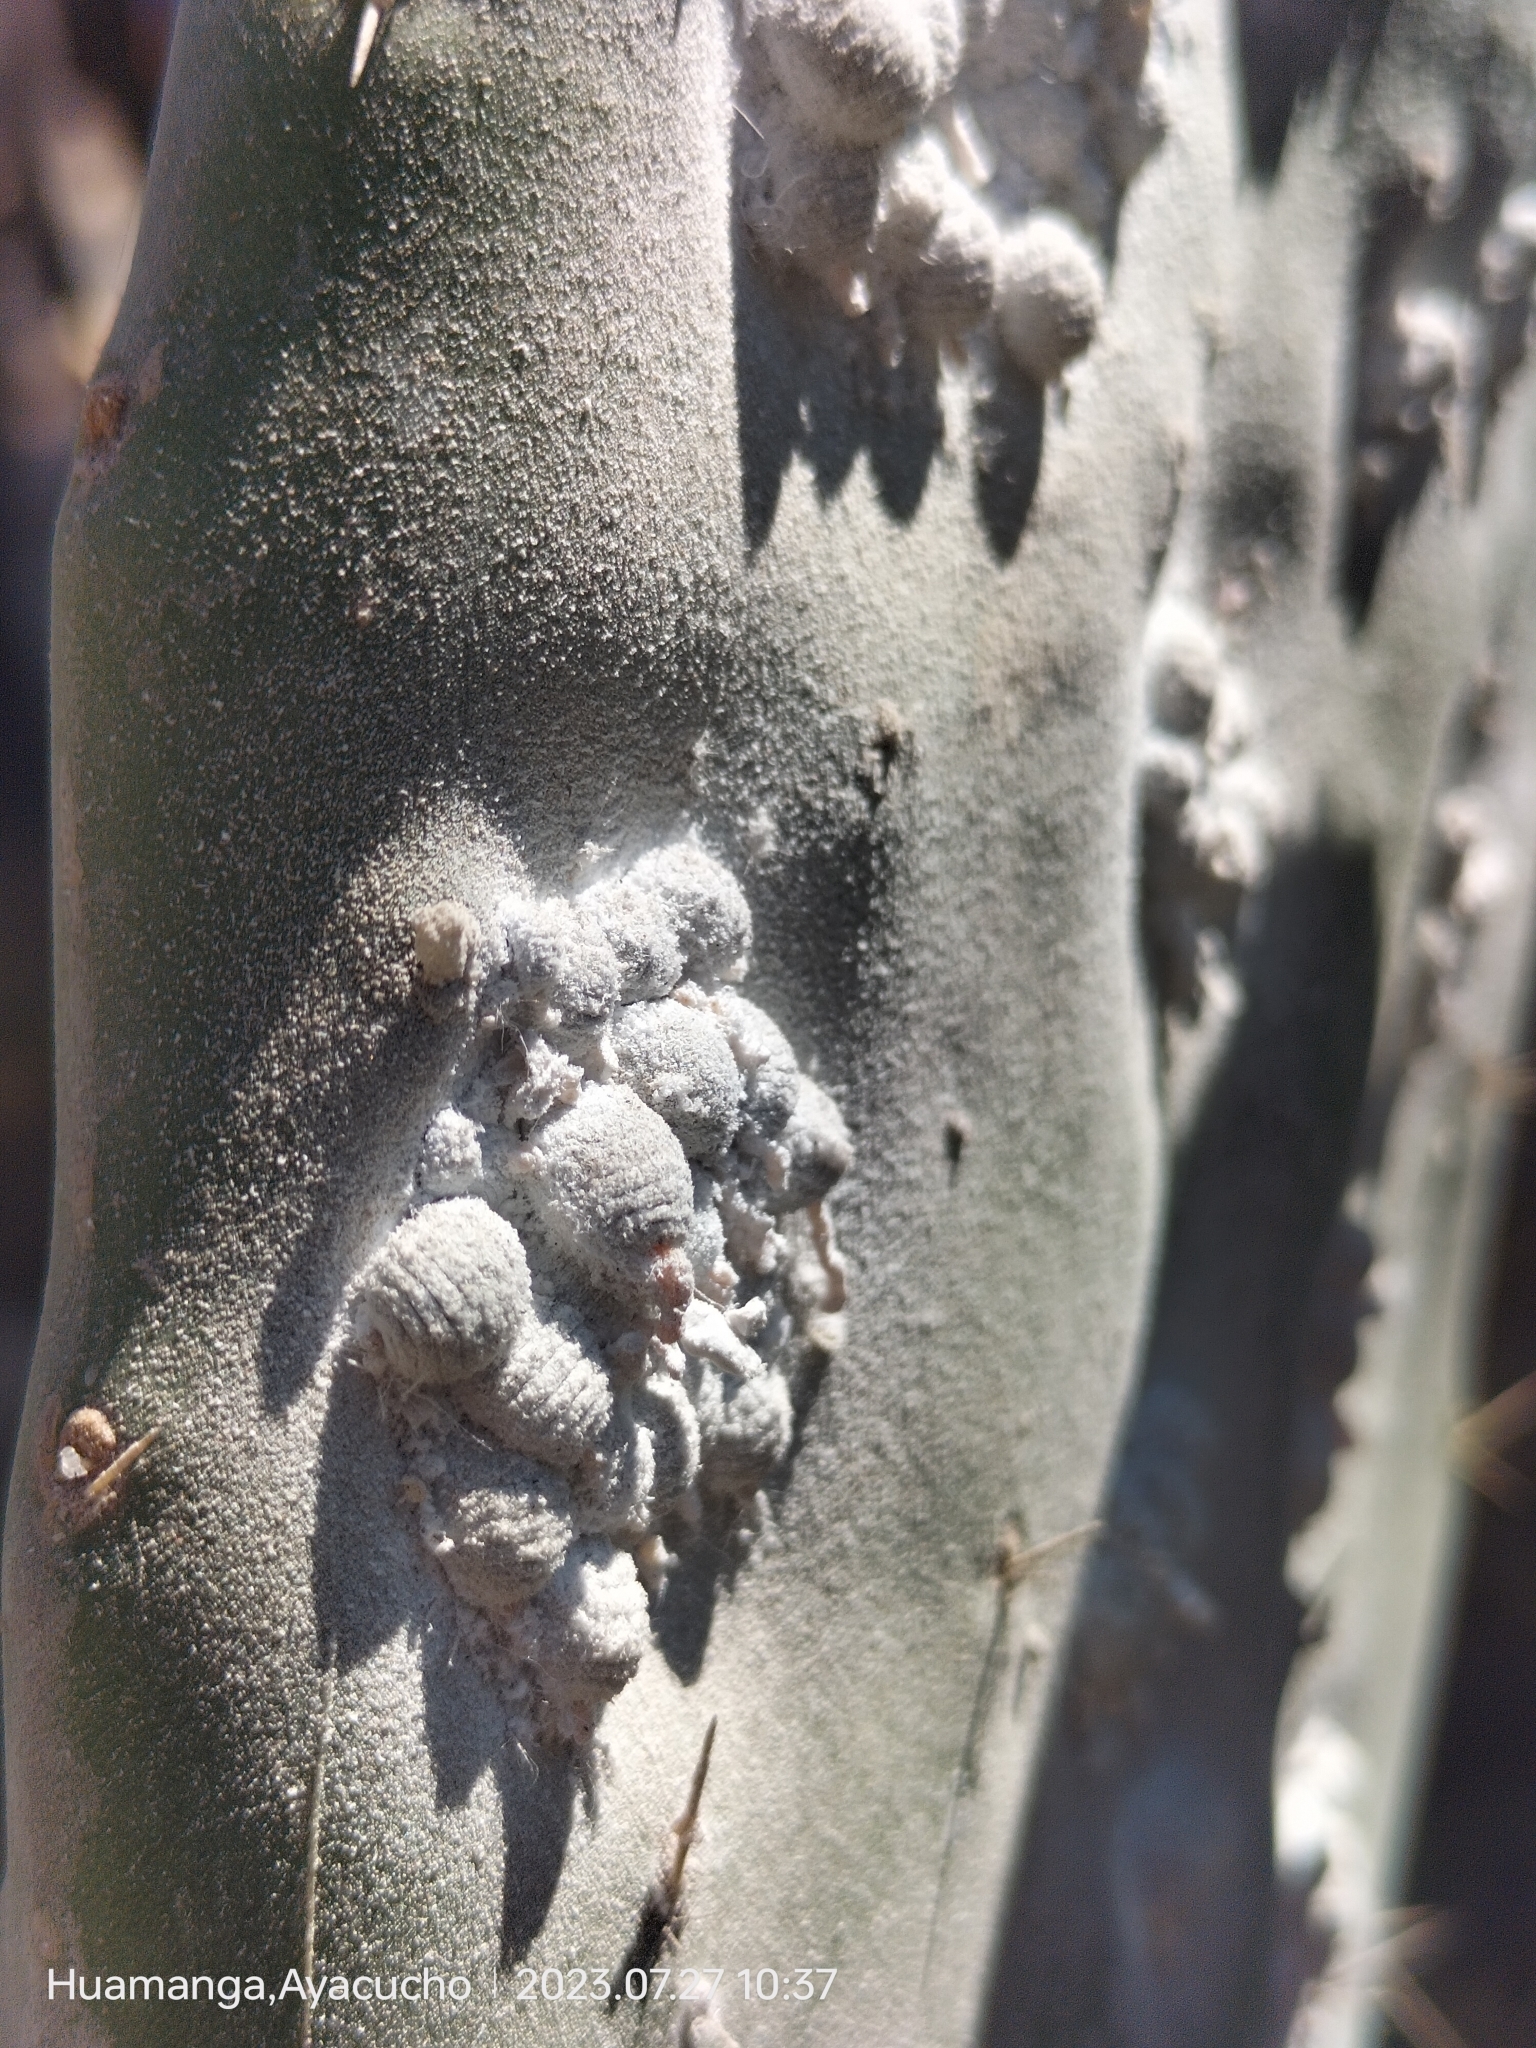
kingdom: Animalia
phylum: Arthropoda
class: Insecta
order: Hemiptera
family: Dactylopiidae
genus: Dactylopius
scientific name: Dactylopius coccus
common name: Cochineal
